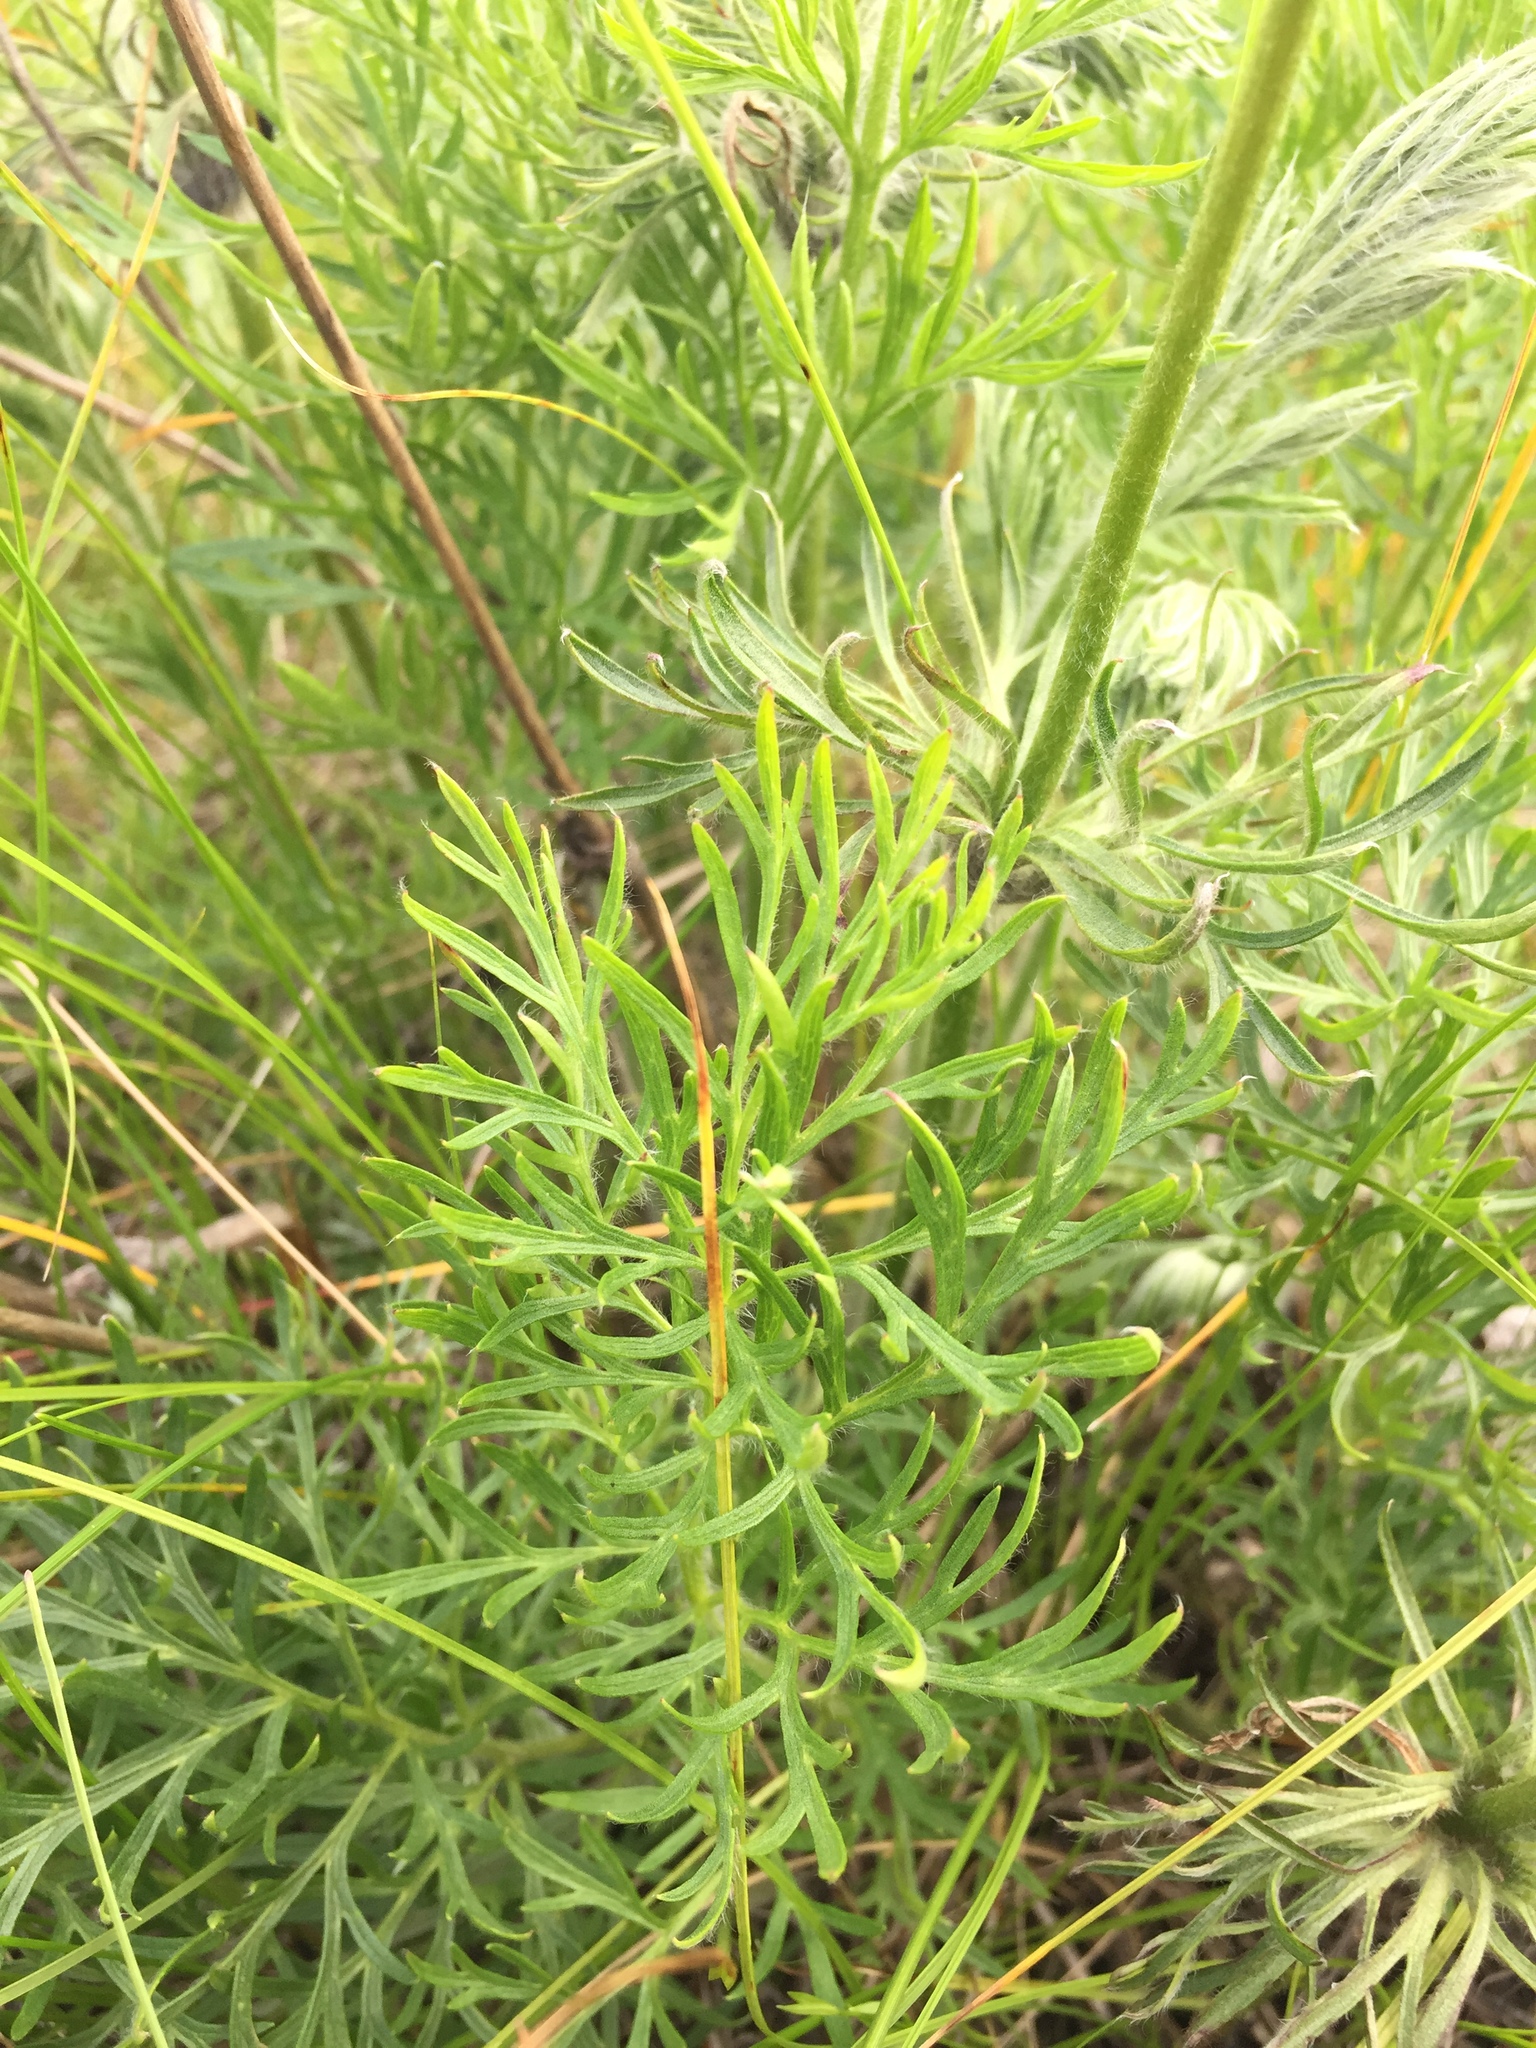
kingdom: Plantae
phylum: Tracheophyta
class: Magnoliopsida
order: Ranunculales
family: Ranunculaceae
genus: Pulsatilla
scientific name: Pulsatilla pratensis
